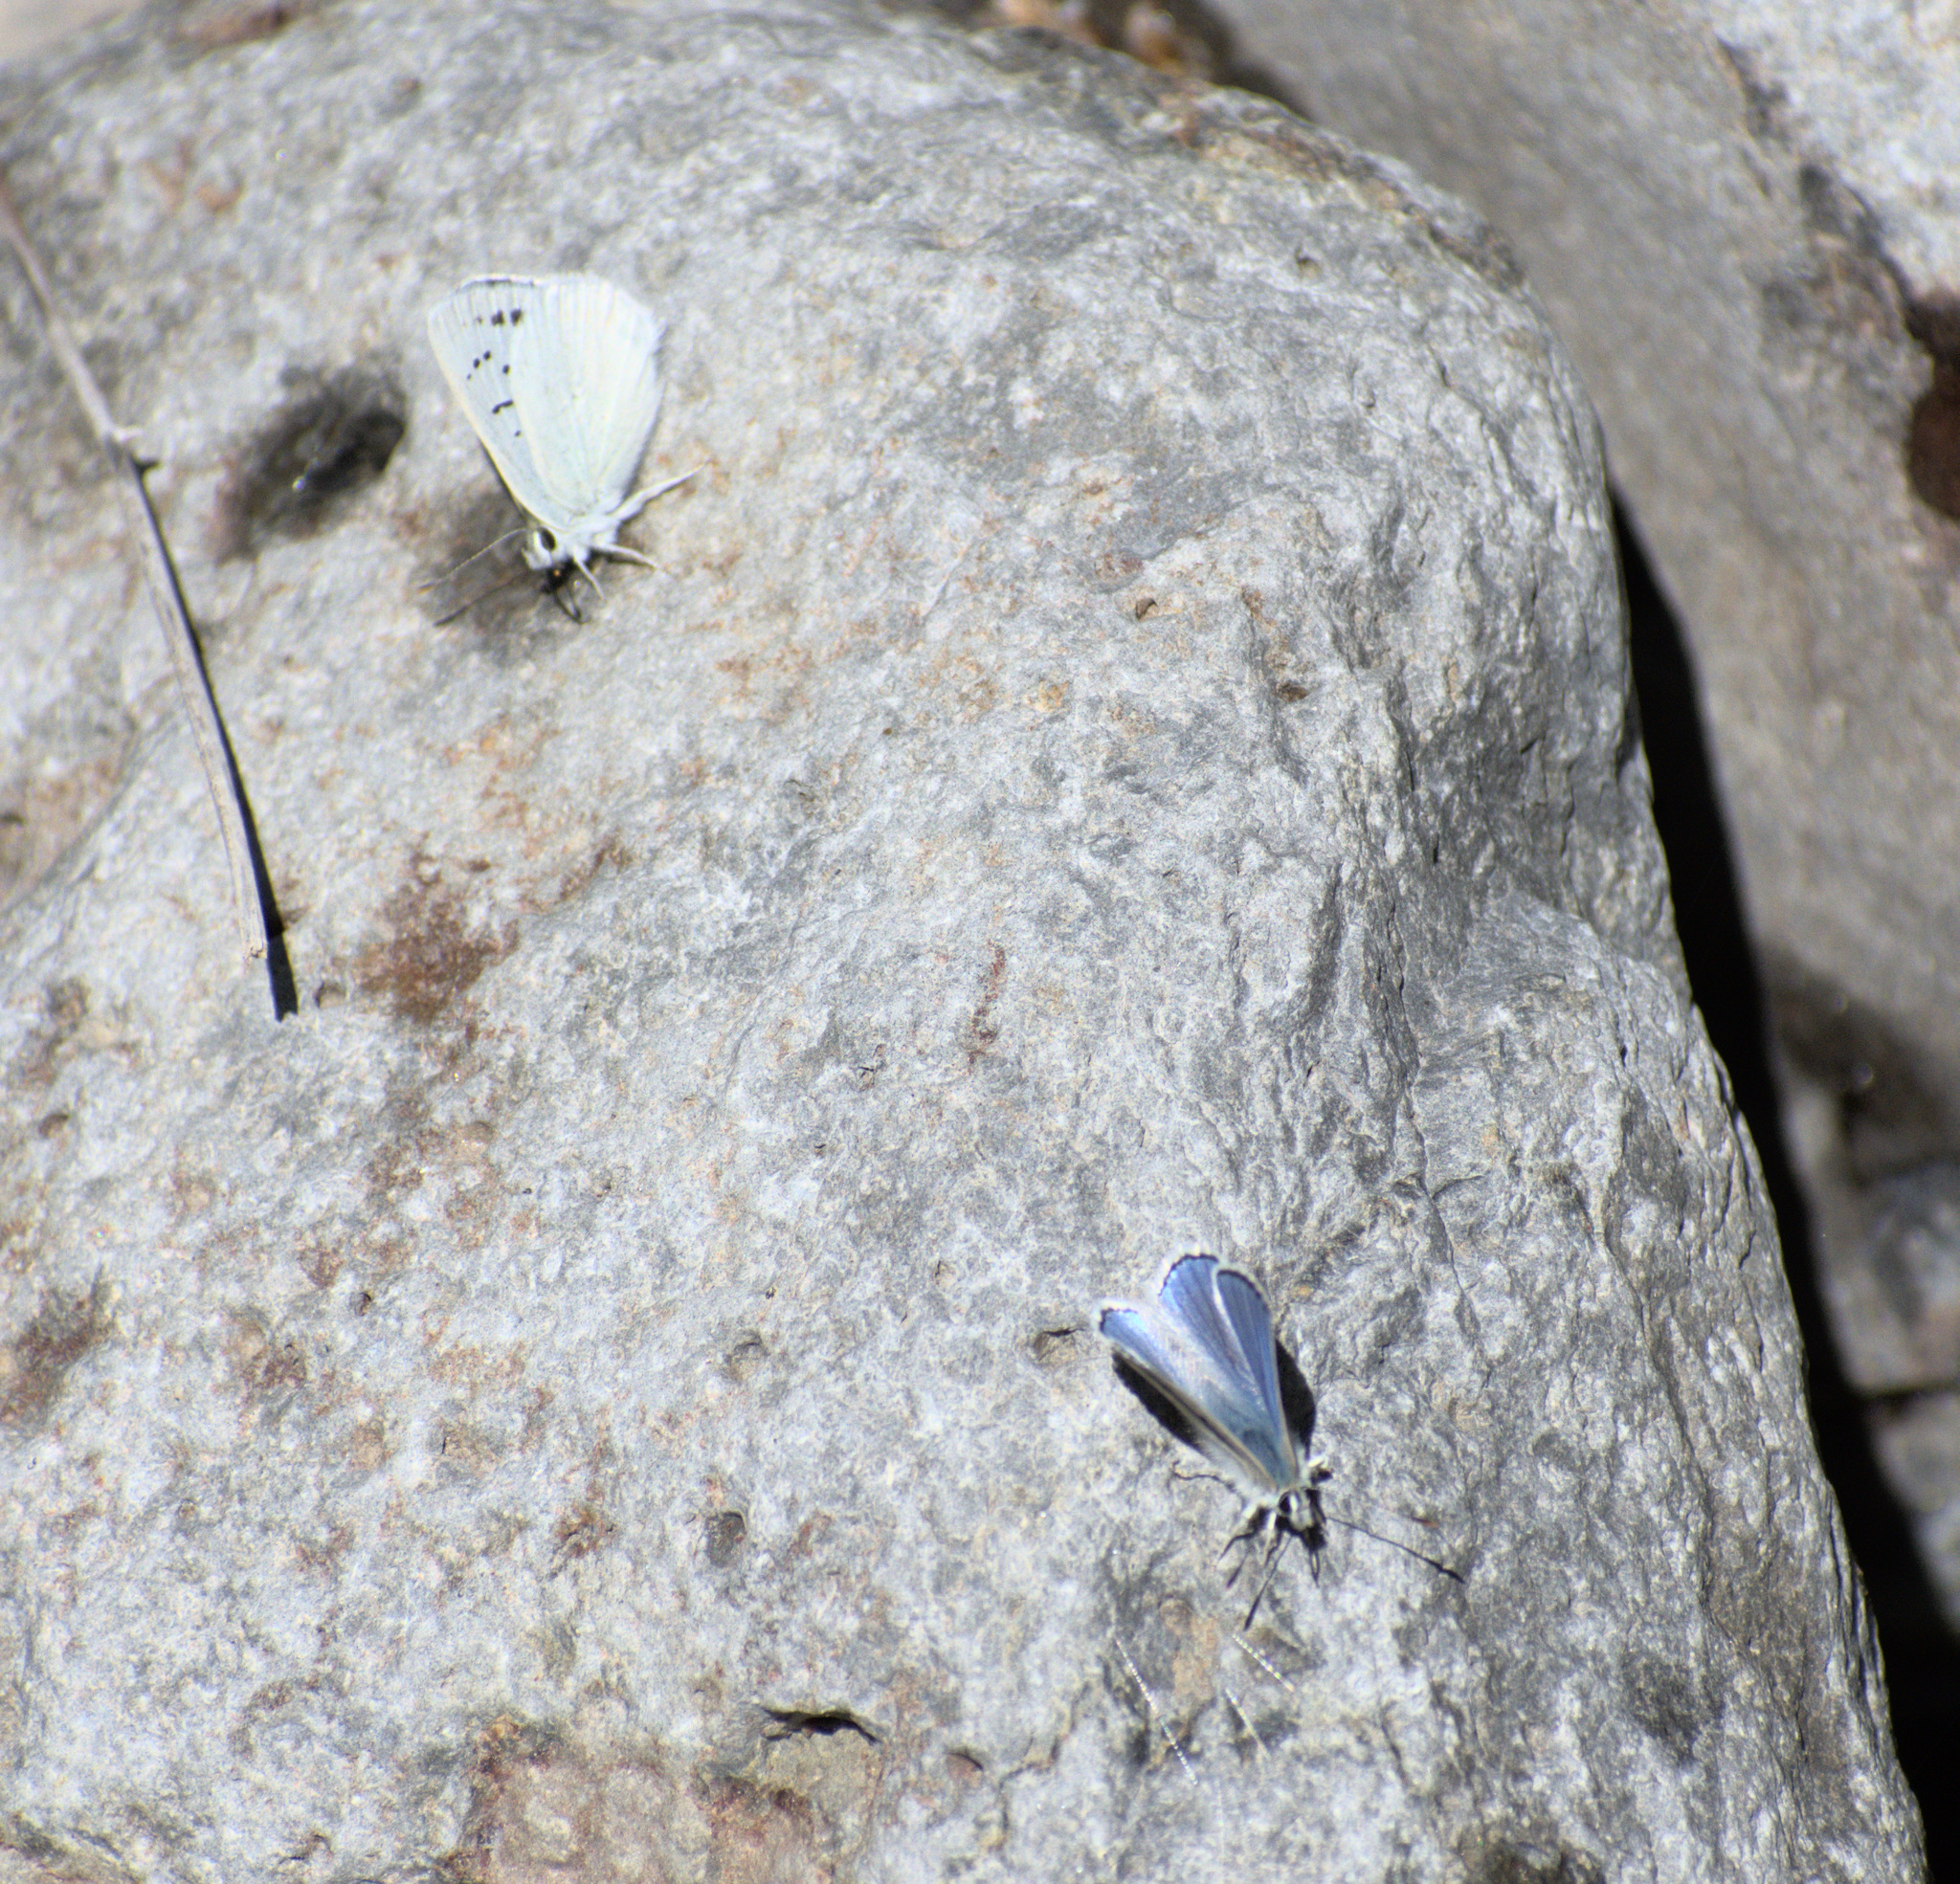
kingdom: Animalia
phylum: Arthropoda
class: Insecta
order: Lepidoptera
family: Lycaenidae
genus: Tharsalea
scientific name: Tharsalea heteronea
